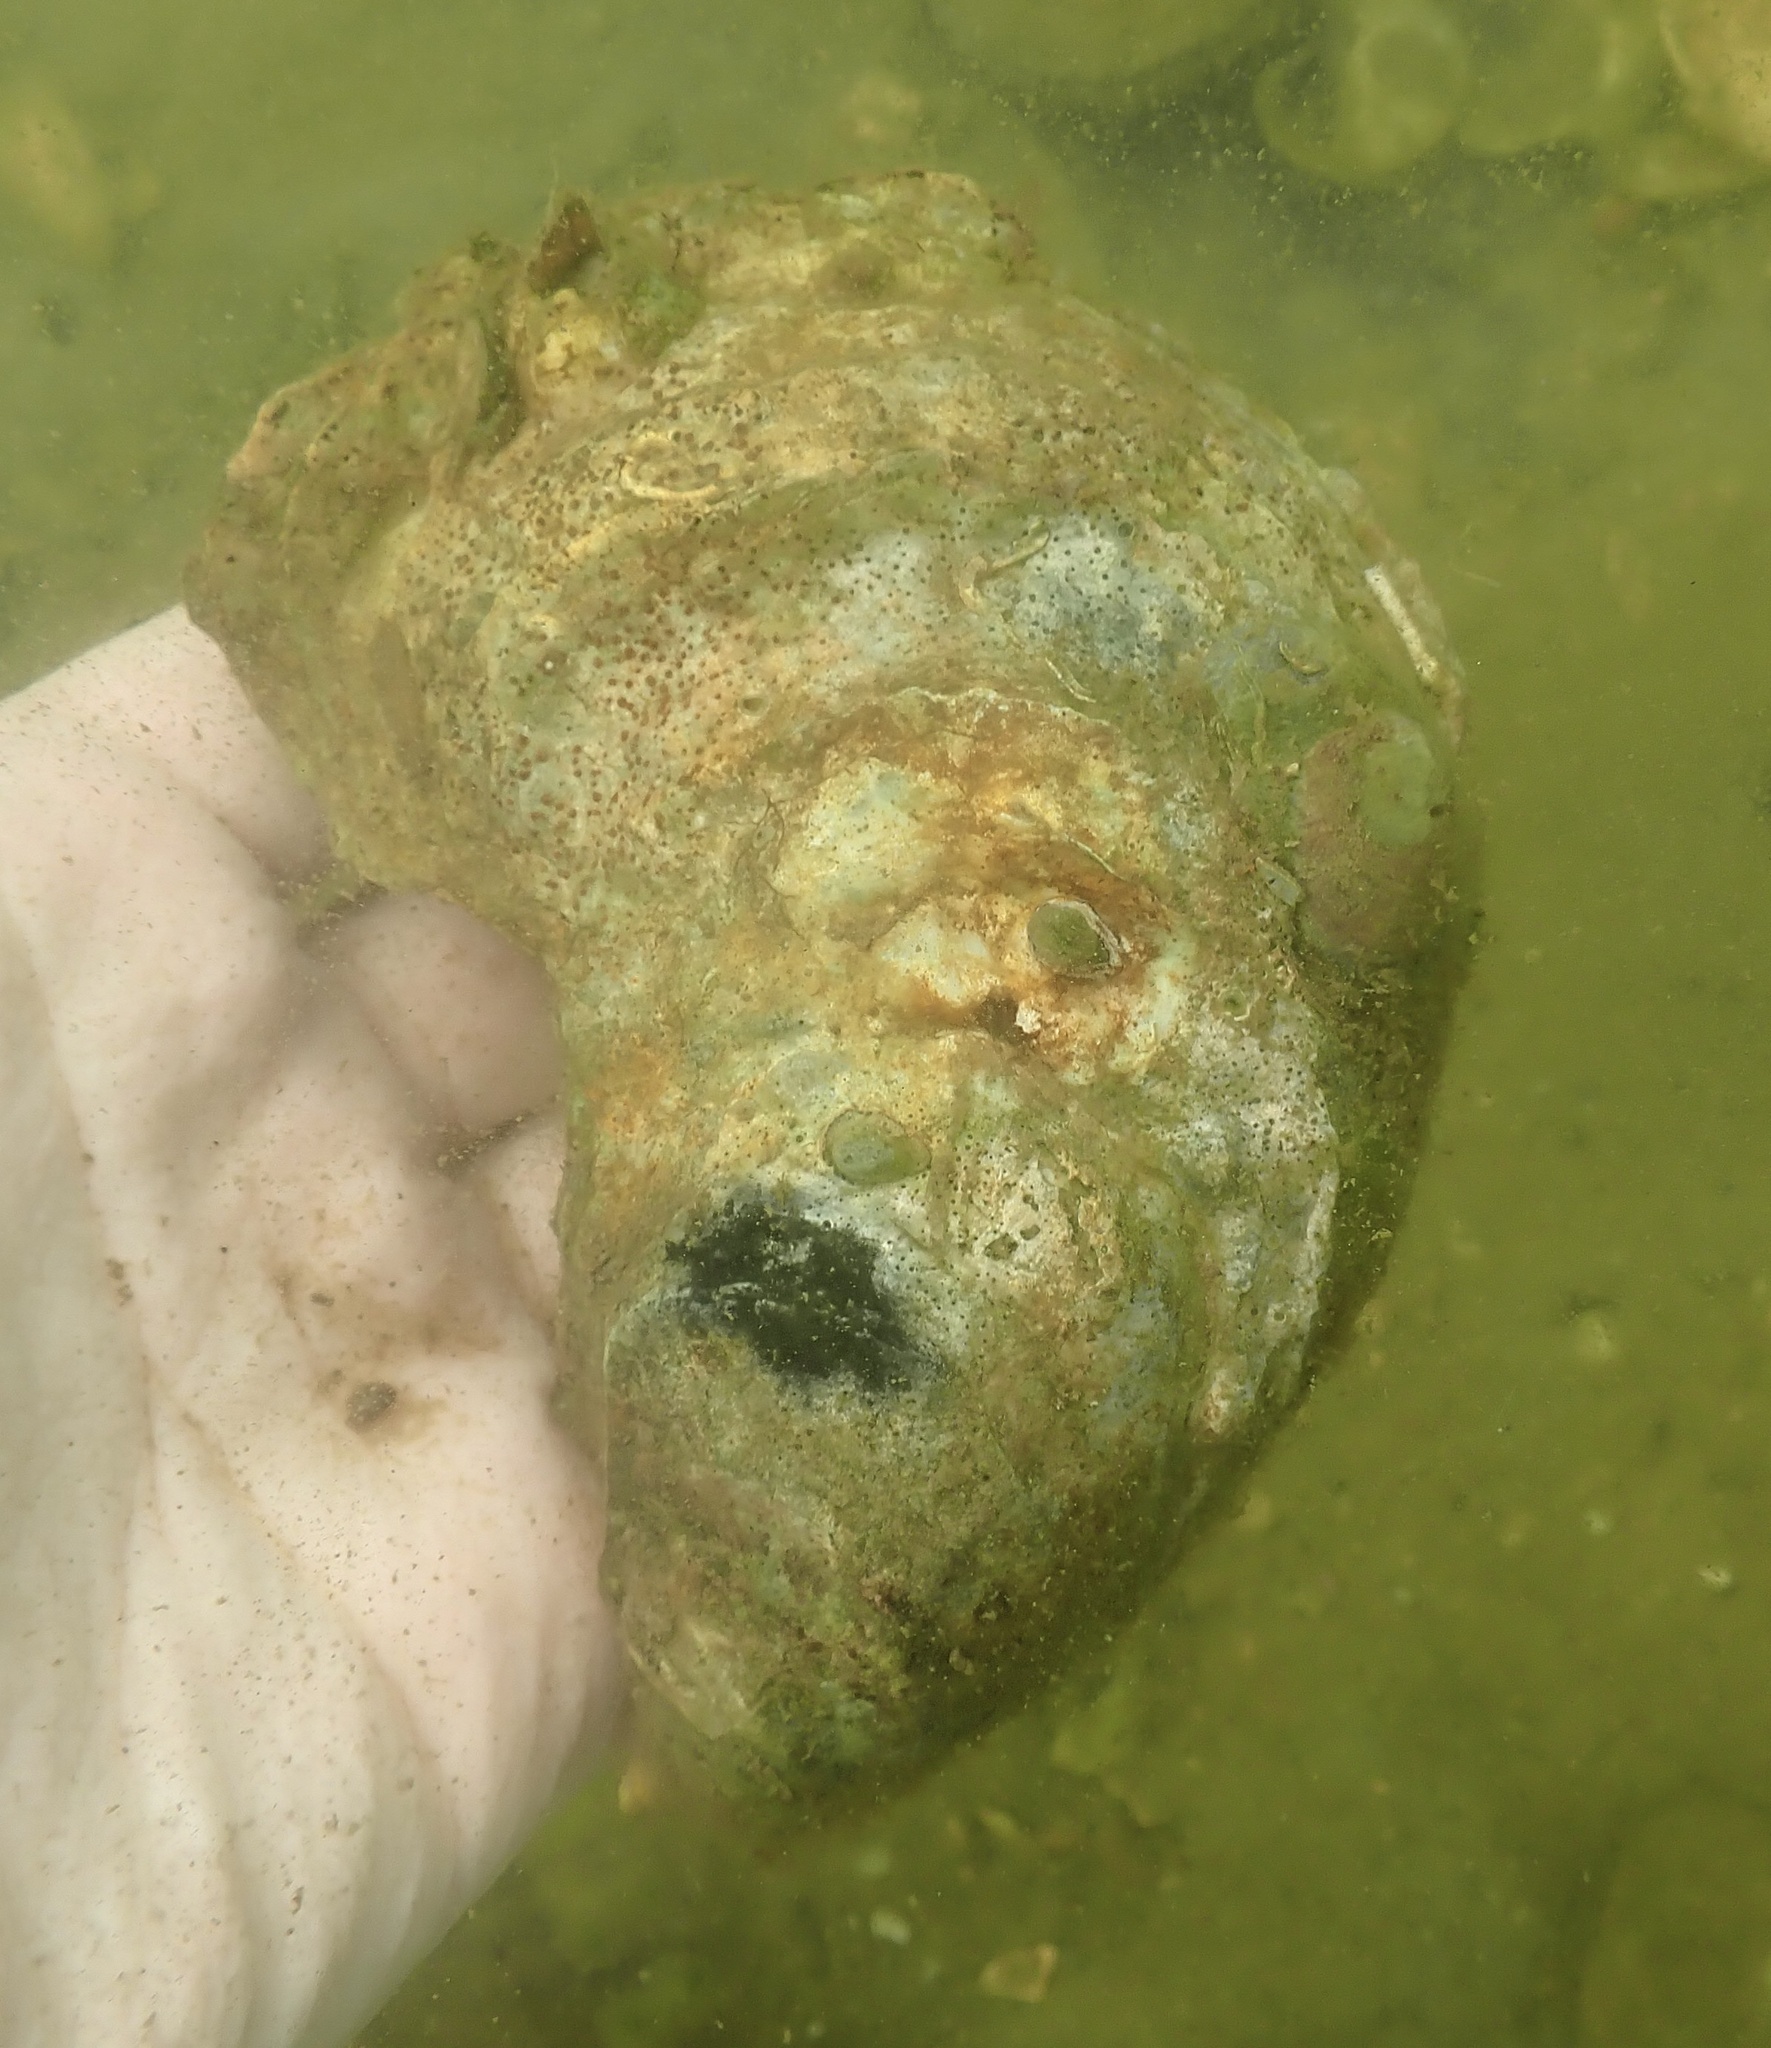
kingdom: Animalia
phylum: Mollusca
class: Bivalvia
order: Ostreida
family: Ostreidae
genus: Crassostrea
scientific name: Crassostrea virginica
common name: American oyster
